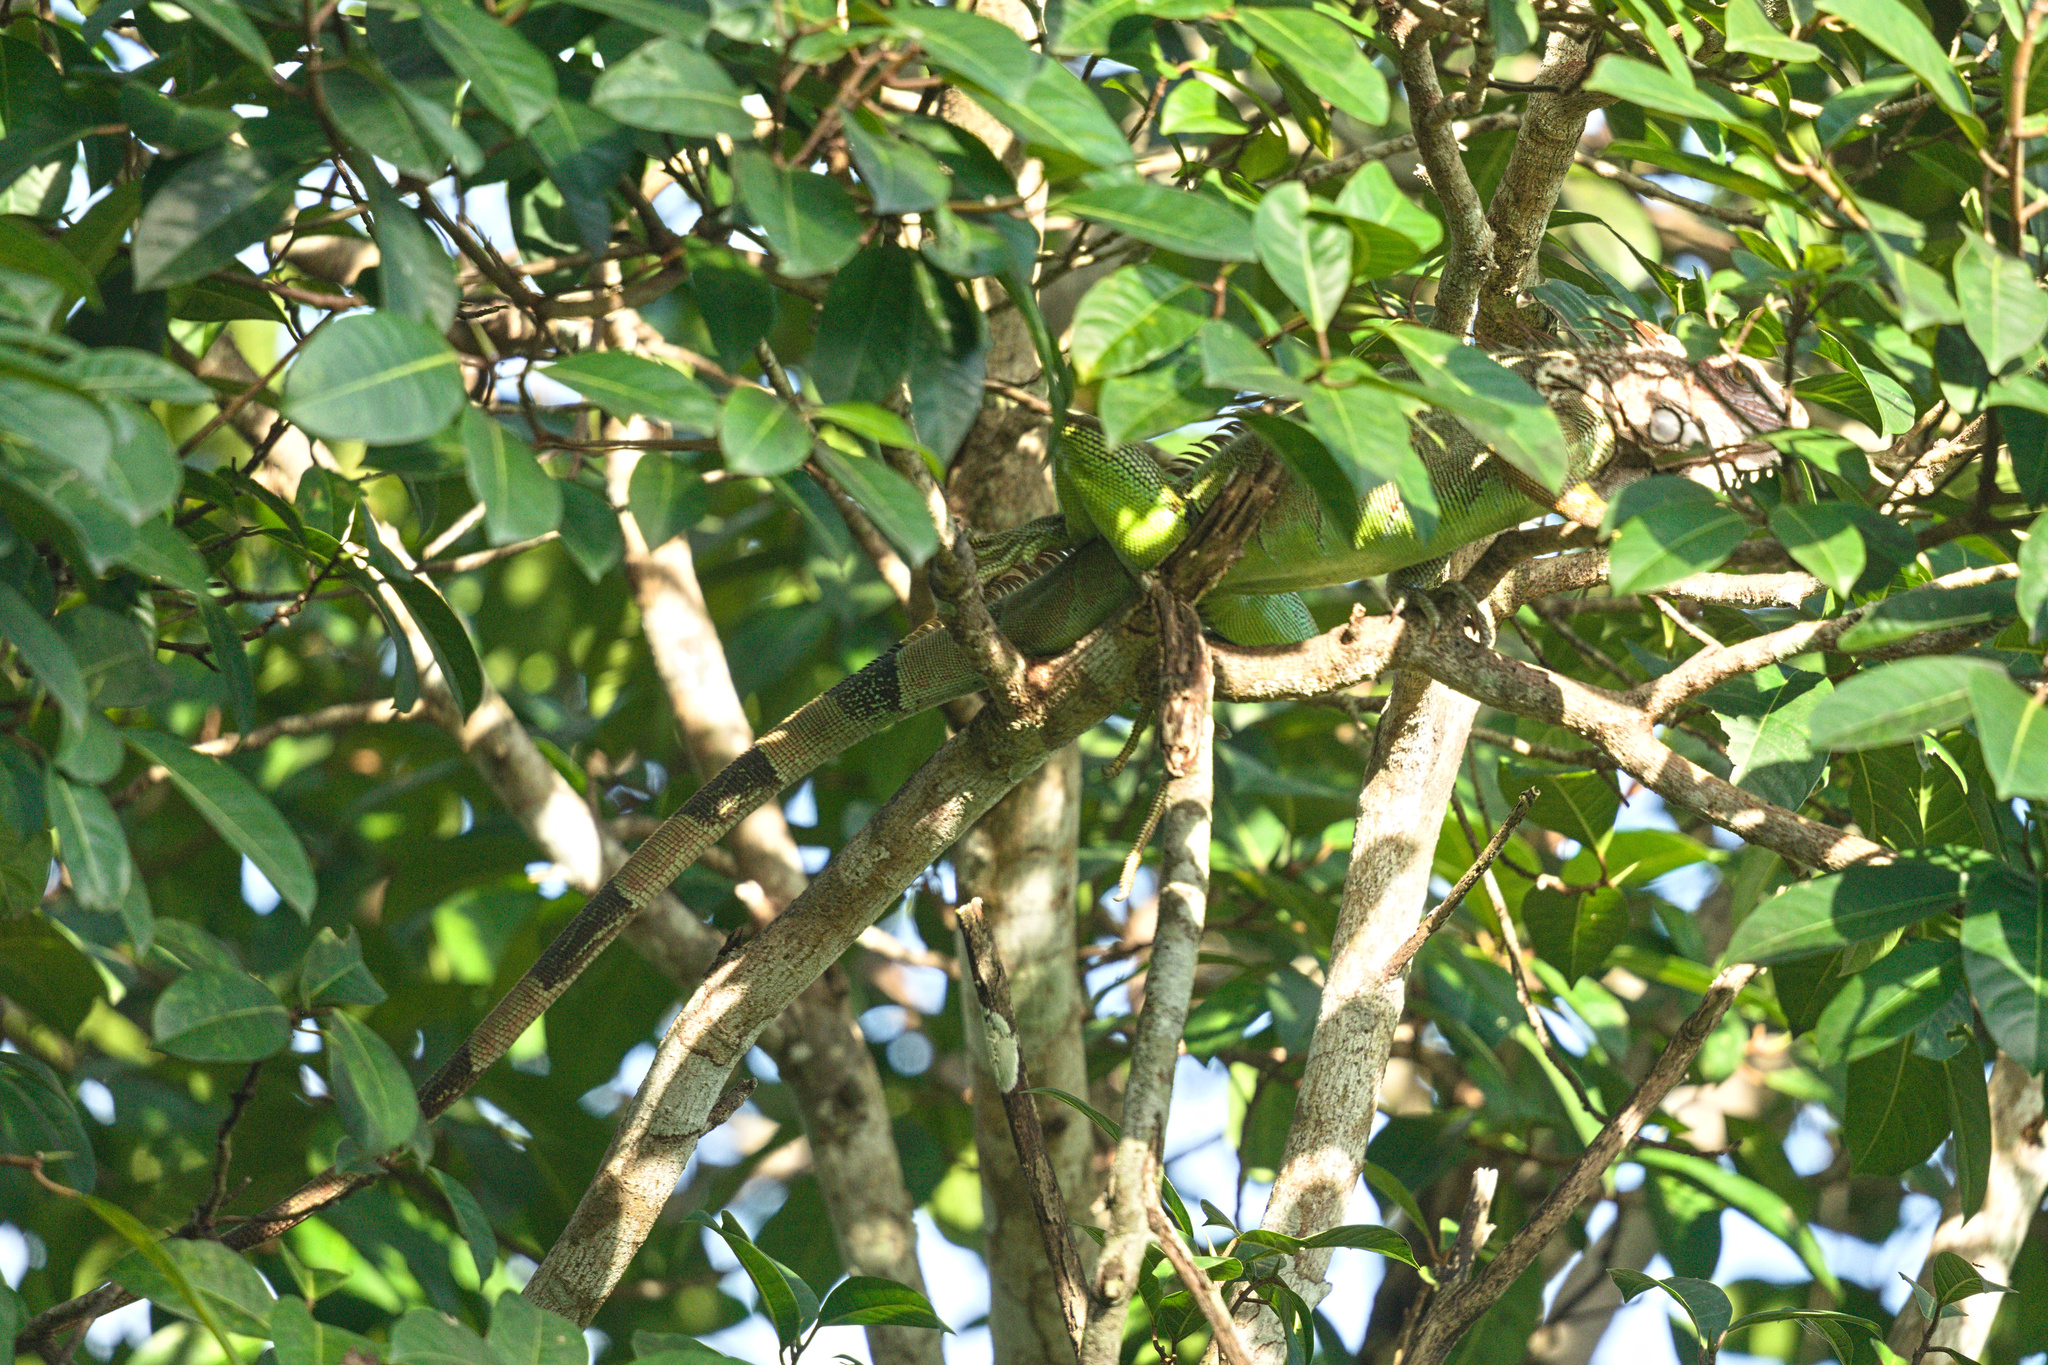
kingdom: Animalia
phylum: Chordata
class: Squamata
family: Iguanidae
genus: Iguana
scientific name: Iguana iguana
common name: Green iguana
